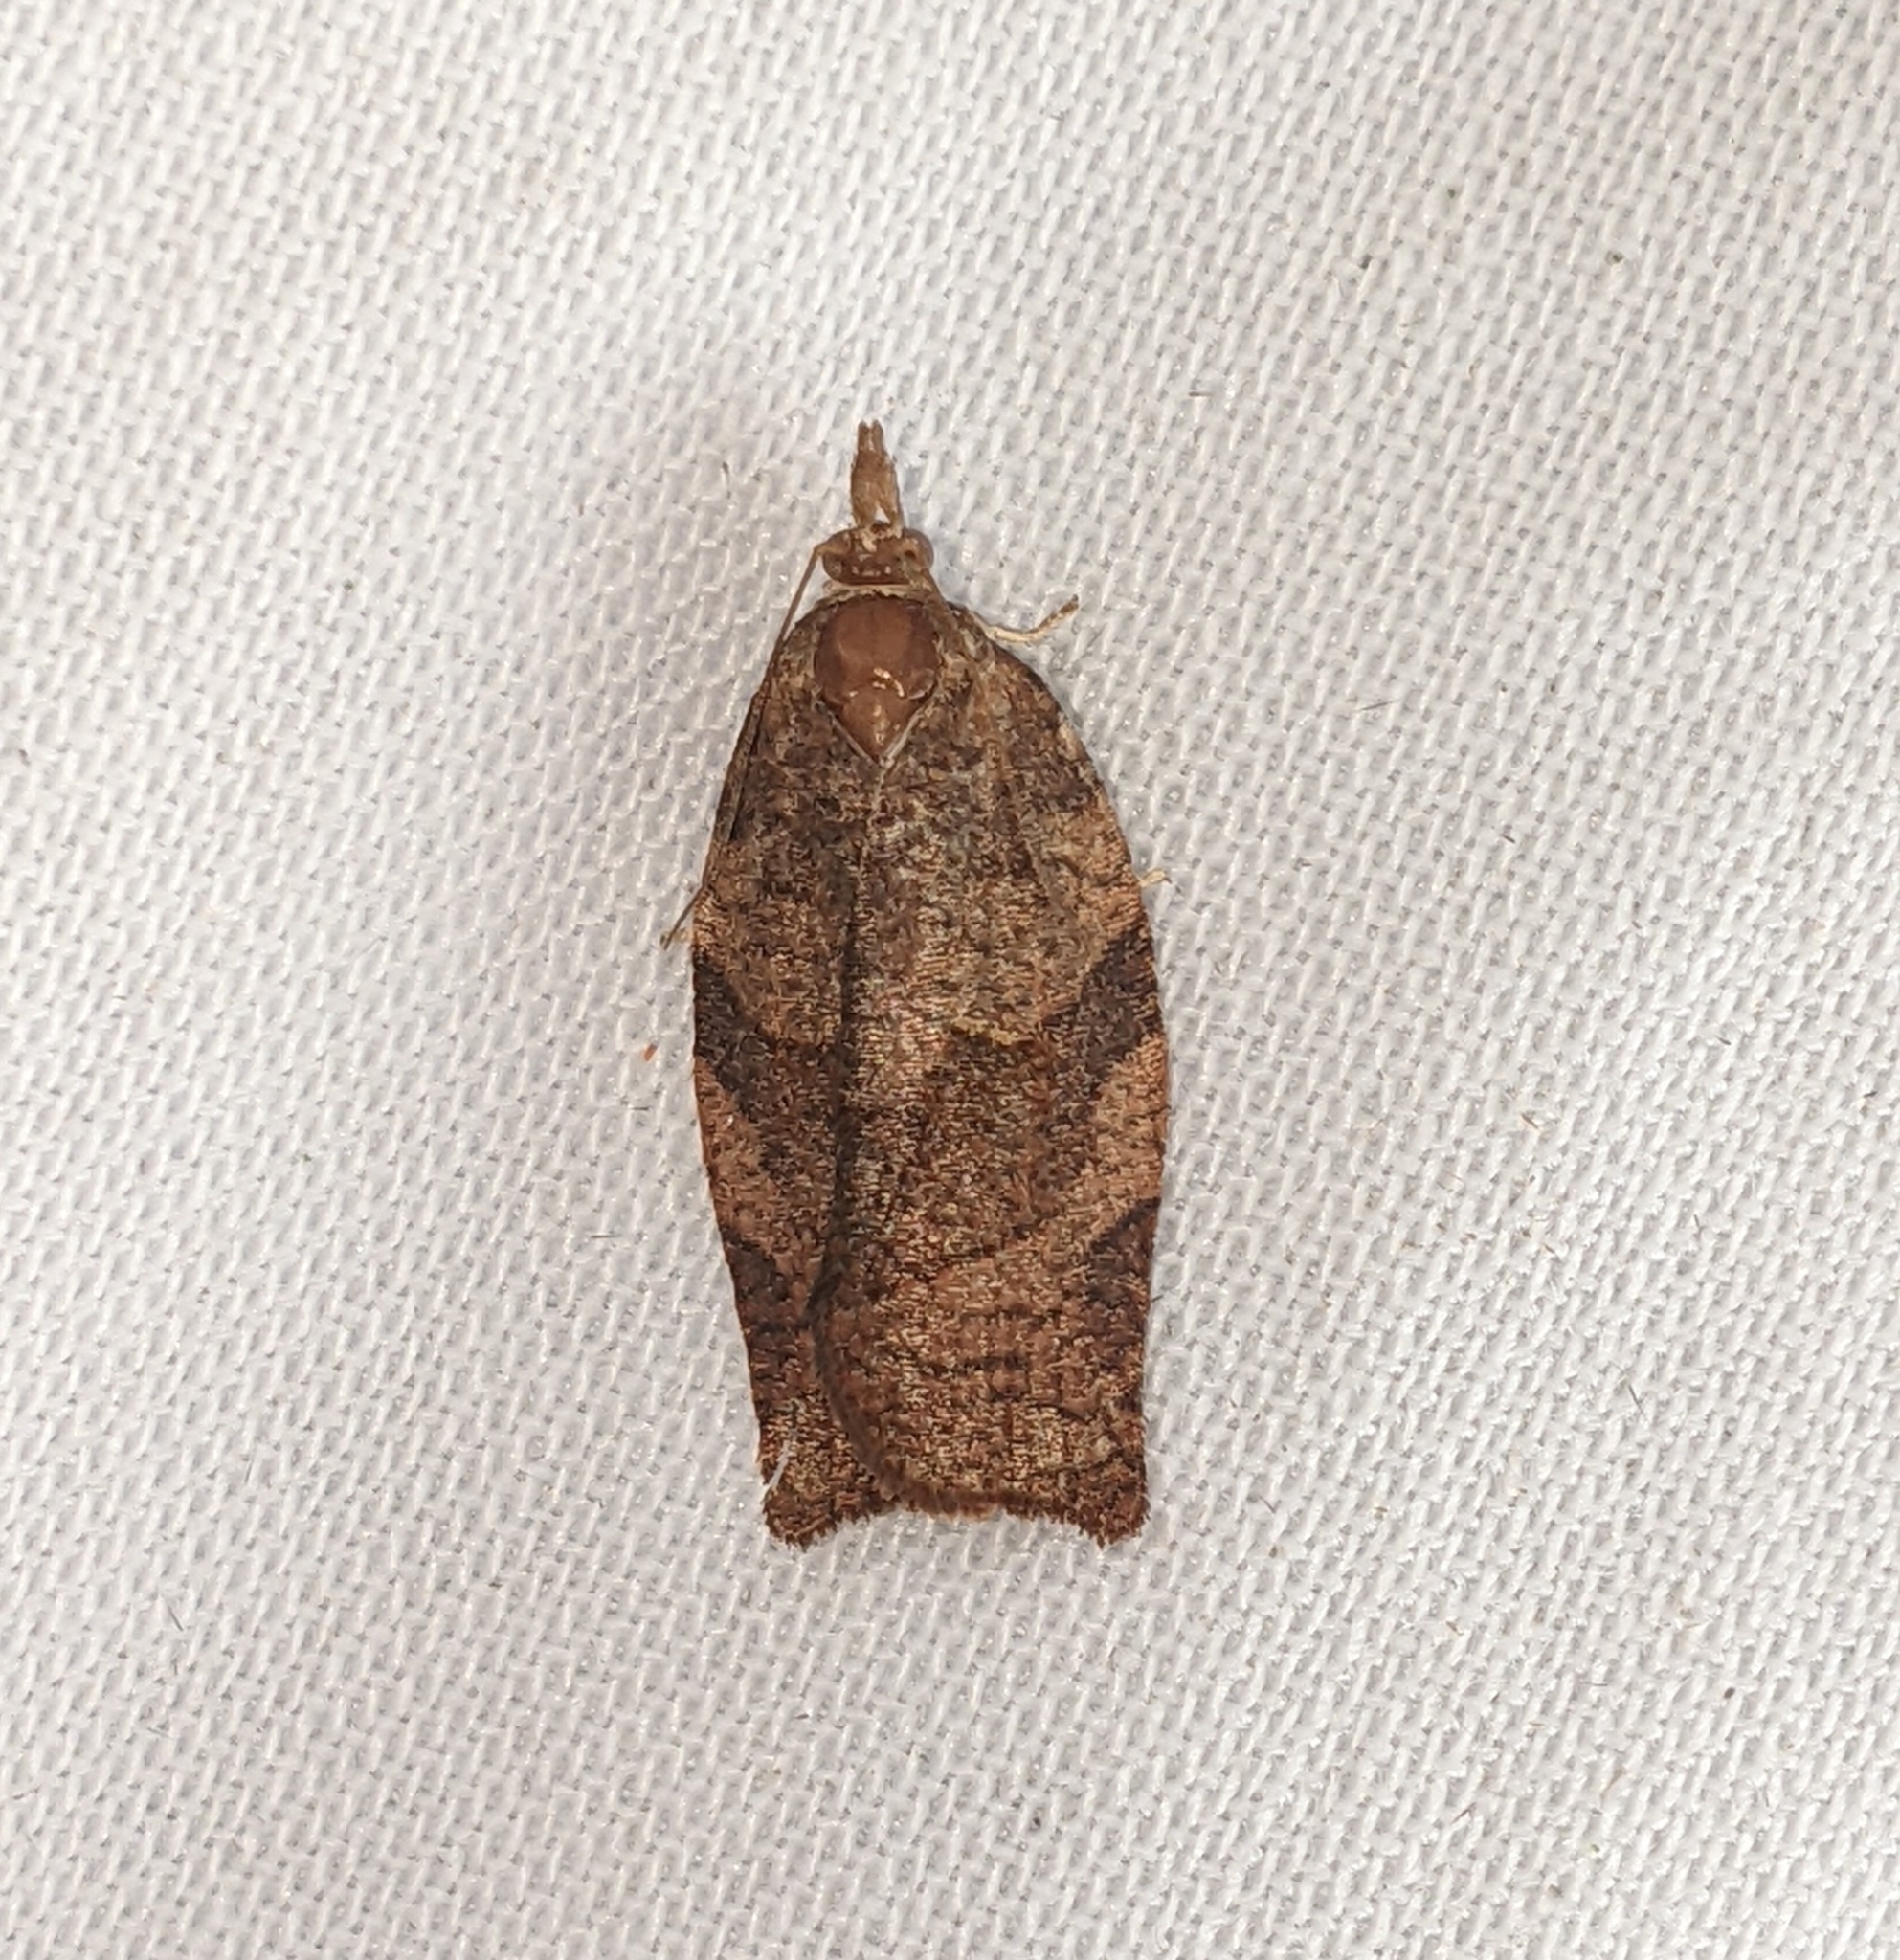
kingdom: Animalia
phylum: Arthropoda
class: Insecta
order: Lepidoptera
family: Tortricidae
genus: Pandemis
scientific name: Pandemis cerasana
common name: Barred fruit-tree tortrix
